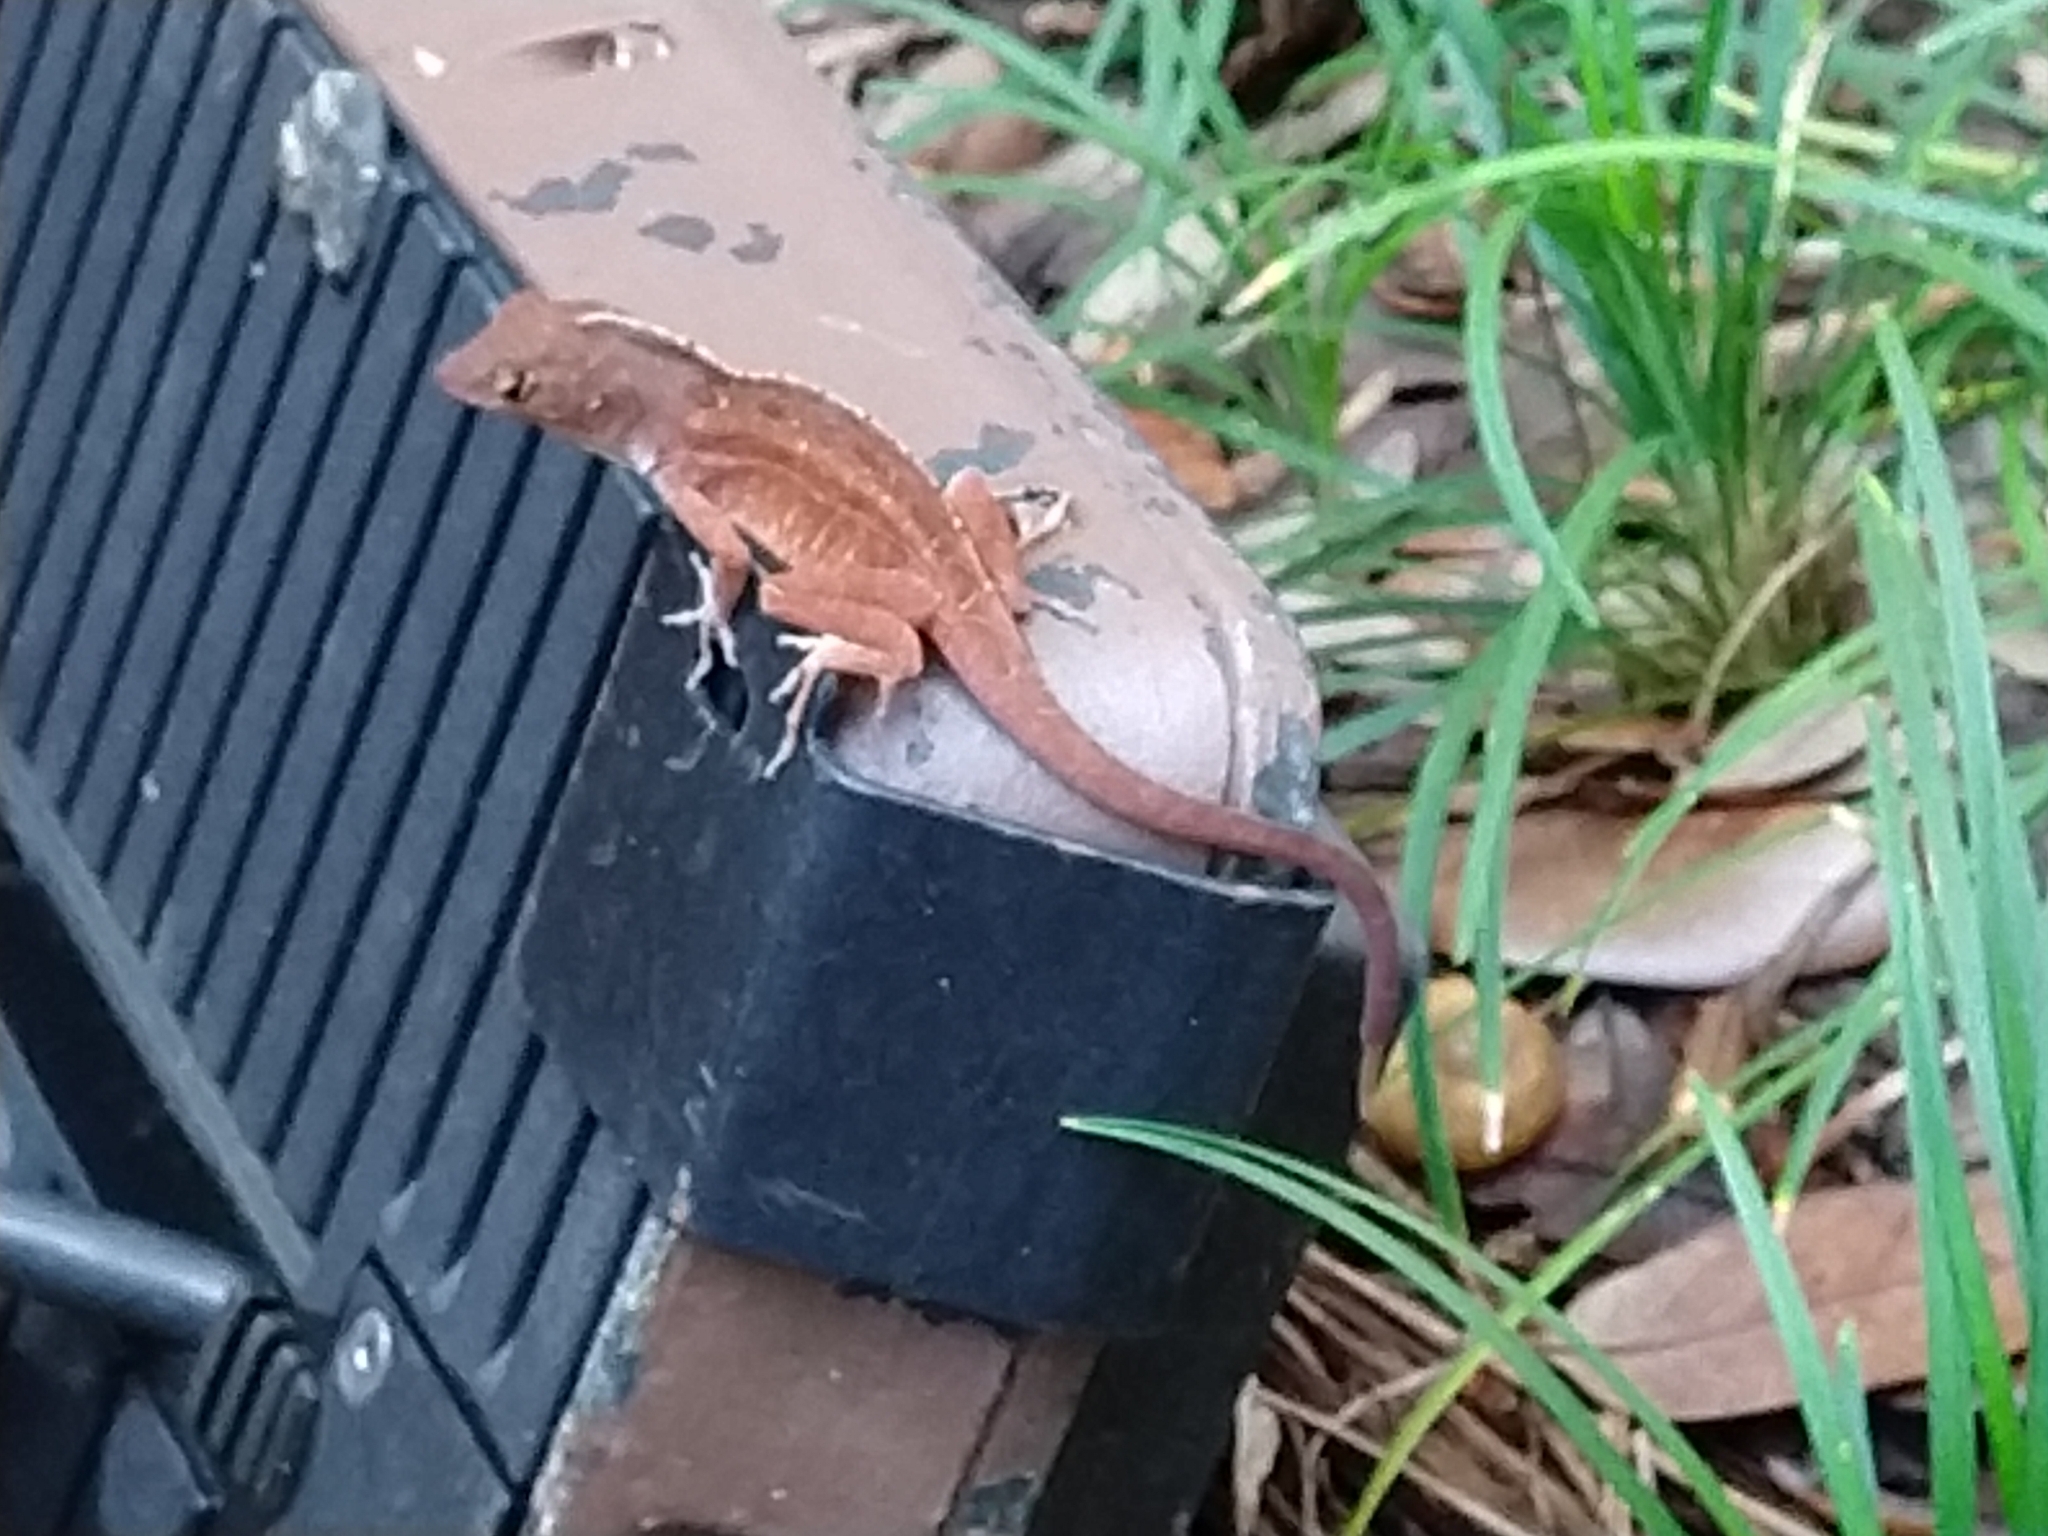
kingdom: Animalia
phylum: Chordata
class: Squamata
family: Dactyloidae
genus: Anolis
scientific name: Anolis sagrei
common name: Brown anole
